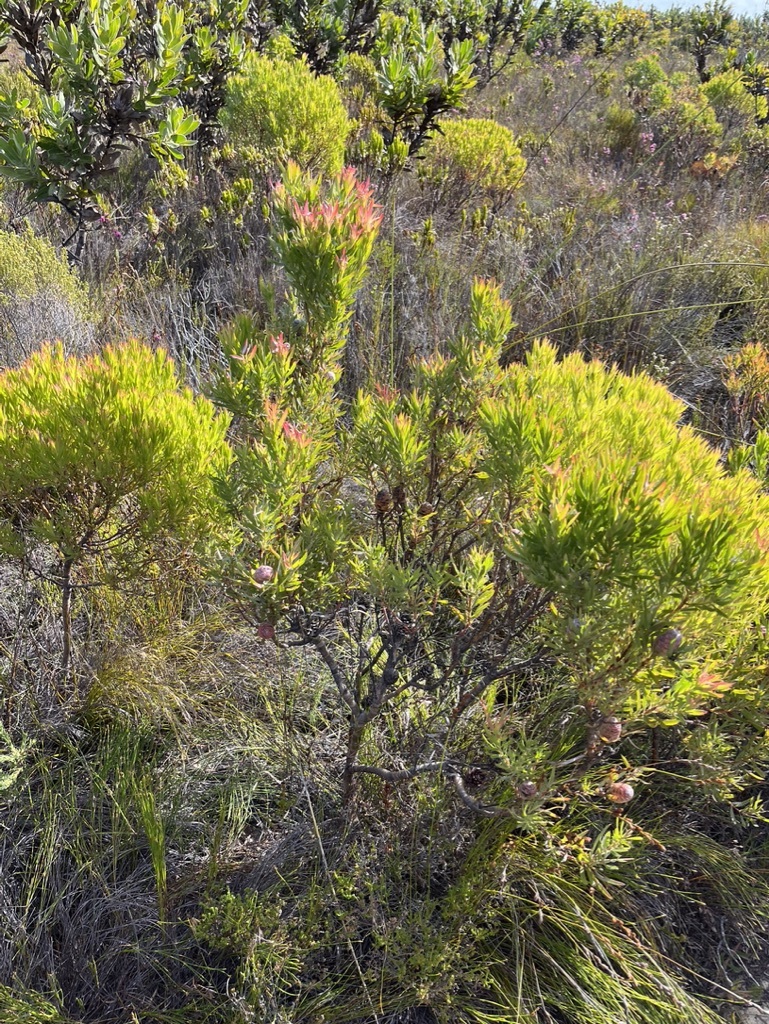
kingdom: Plantae
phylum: Tracheophyta
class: Magnoliopsida
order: Proteales
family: Proteaceae
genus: Leucadendron
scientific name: Leucadendron xanthoconus
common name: Sickle-leaf conebush
